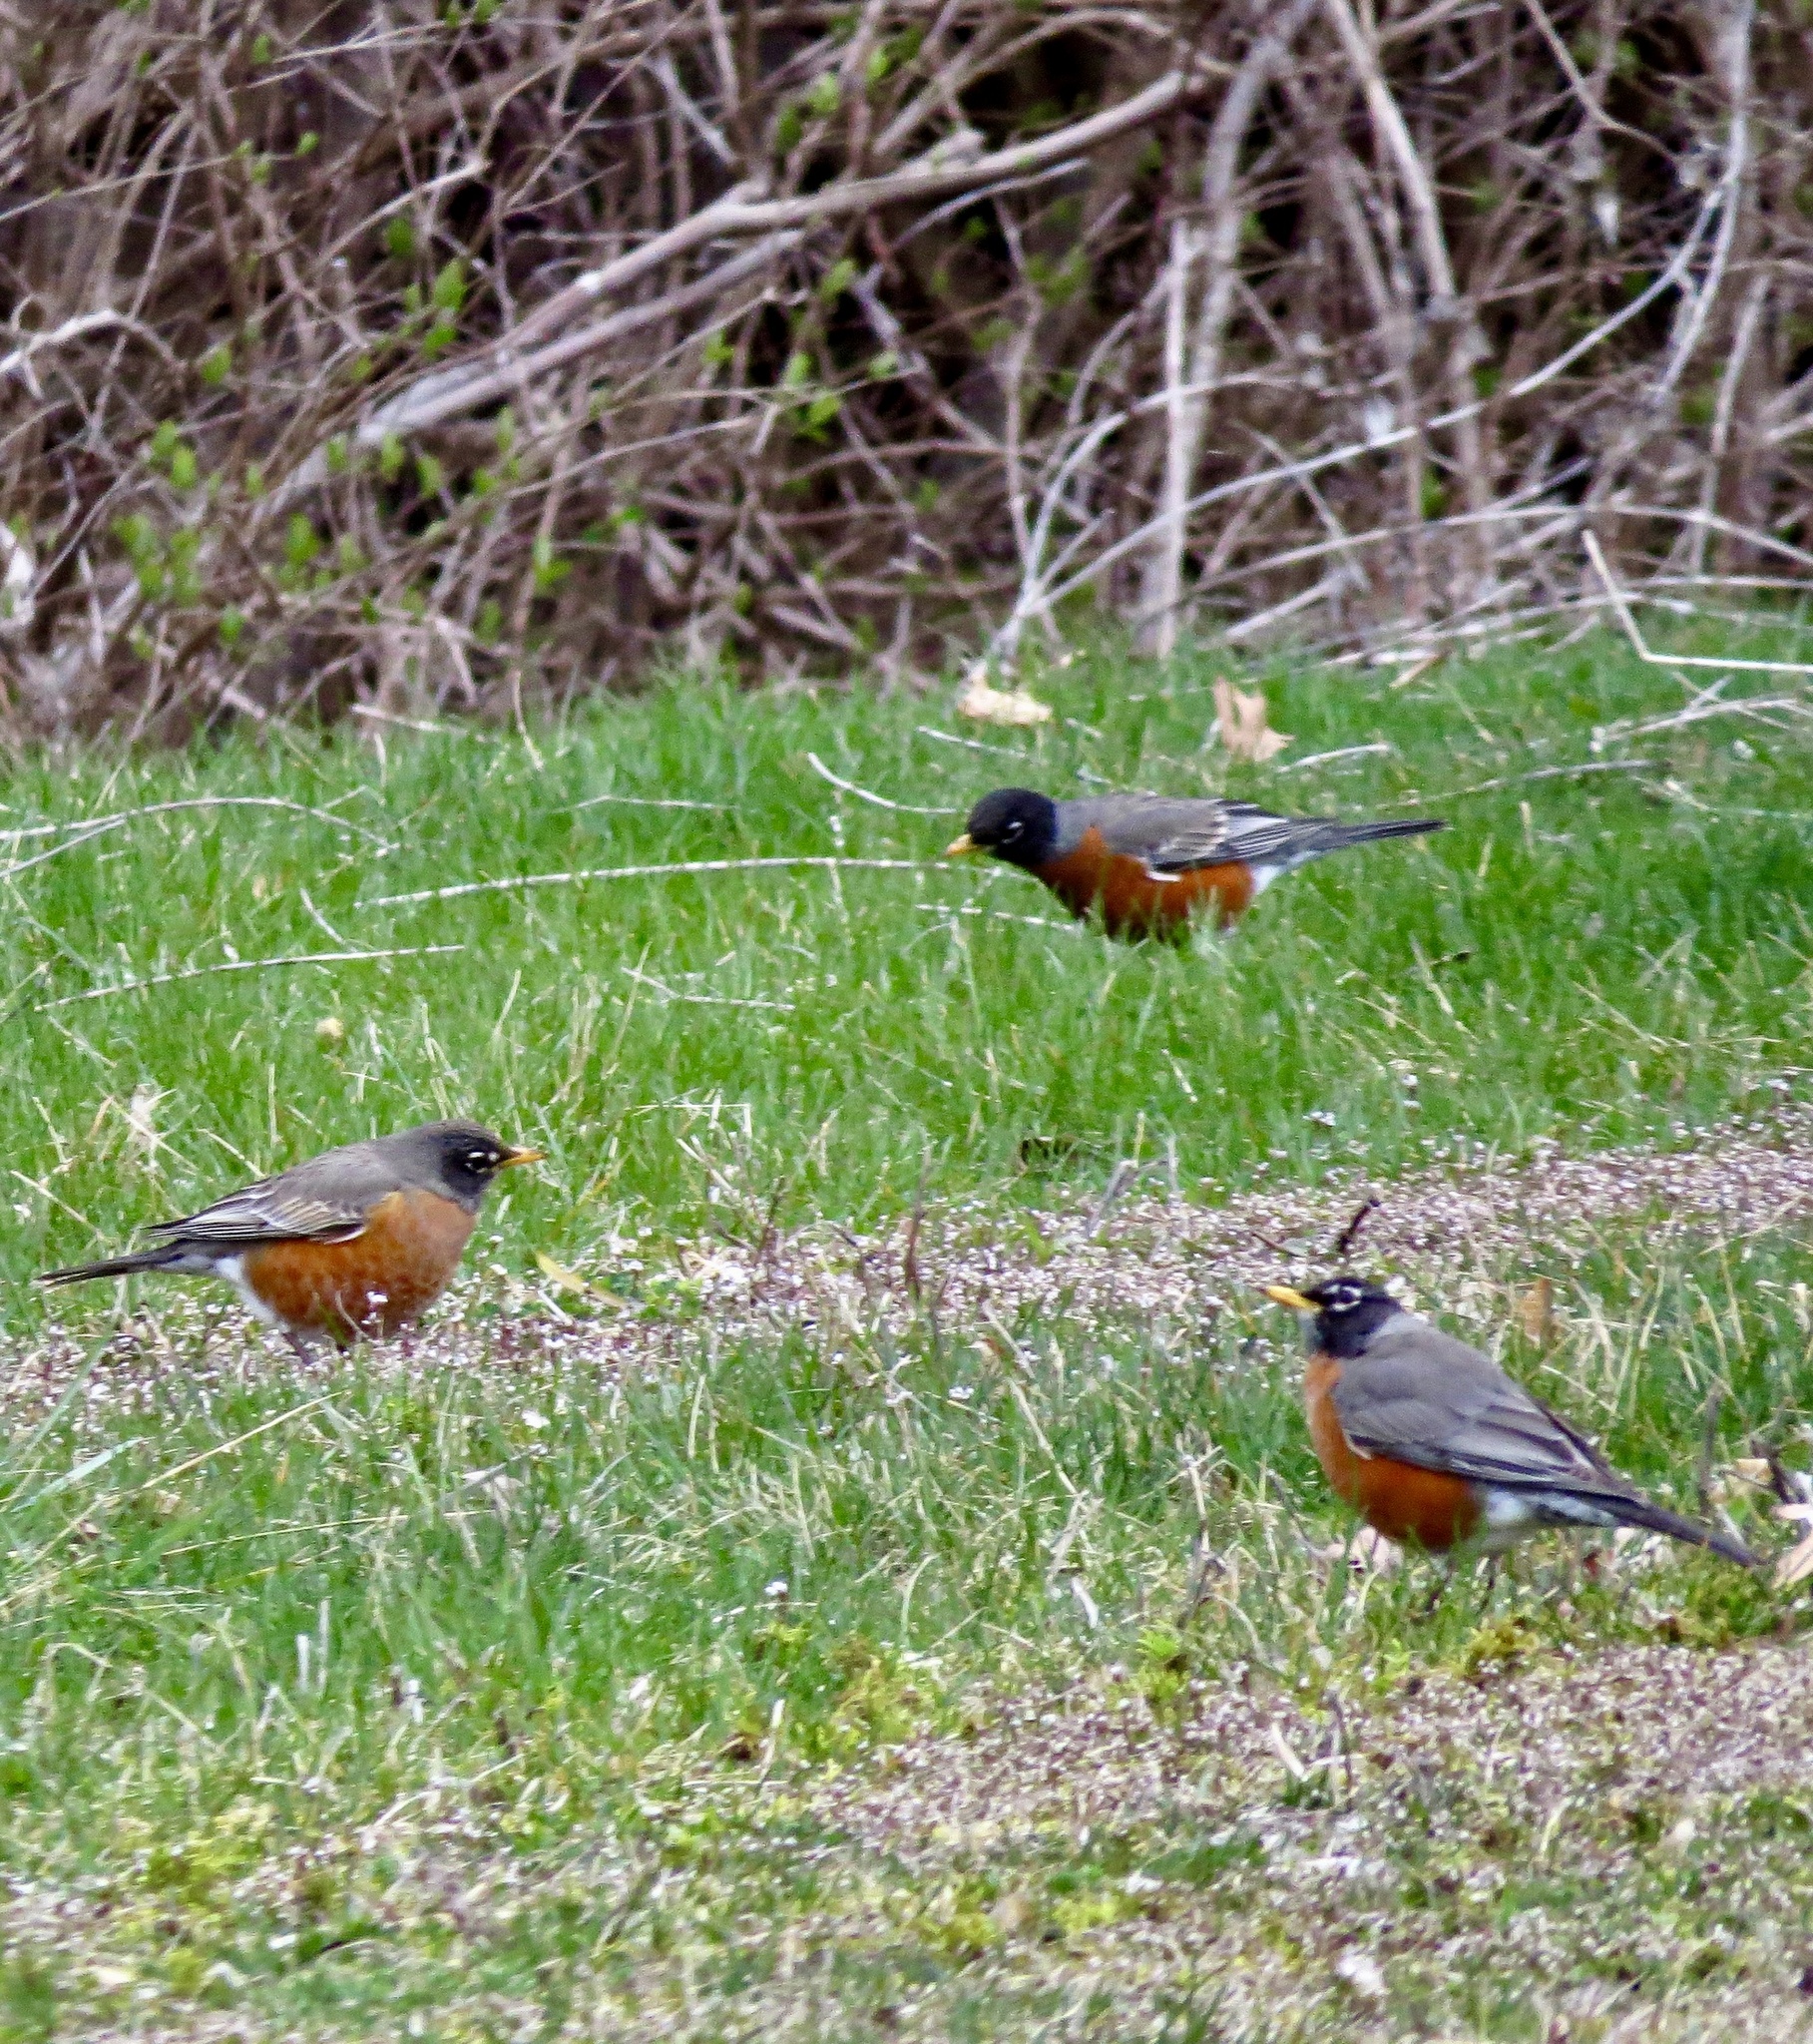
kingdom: Animalia
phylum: Chordata
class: Aves
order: Passeriformes
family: Turdidae
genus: Turdus
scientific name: Turdus migratorius
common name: American robin
